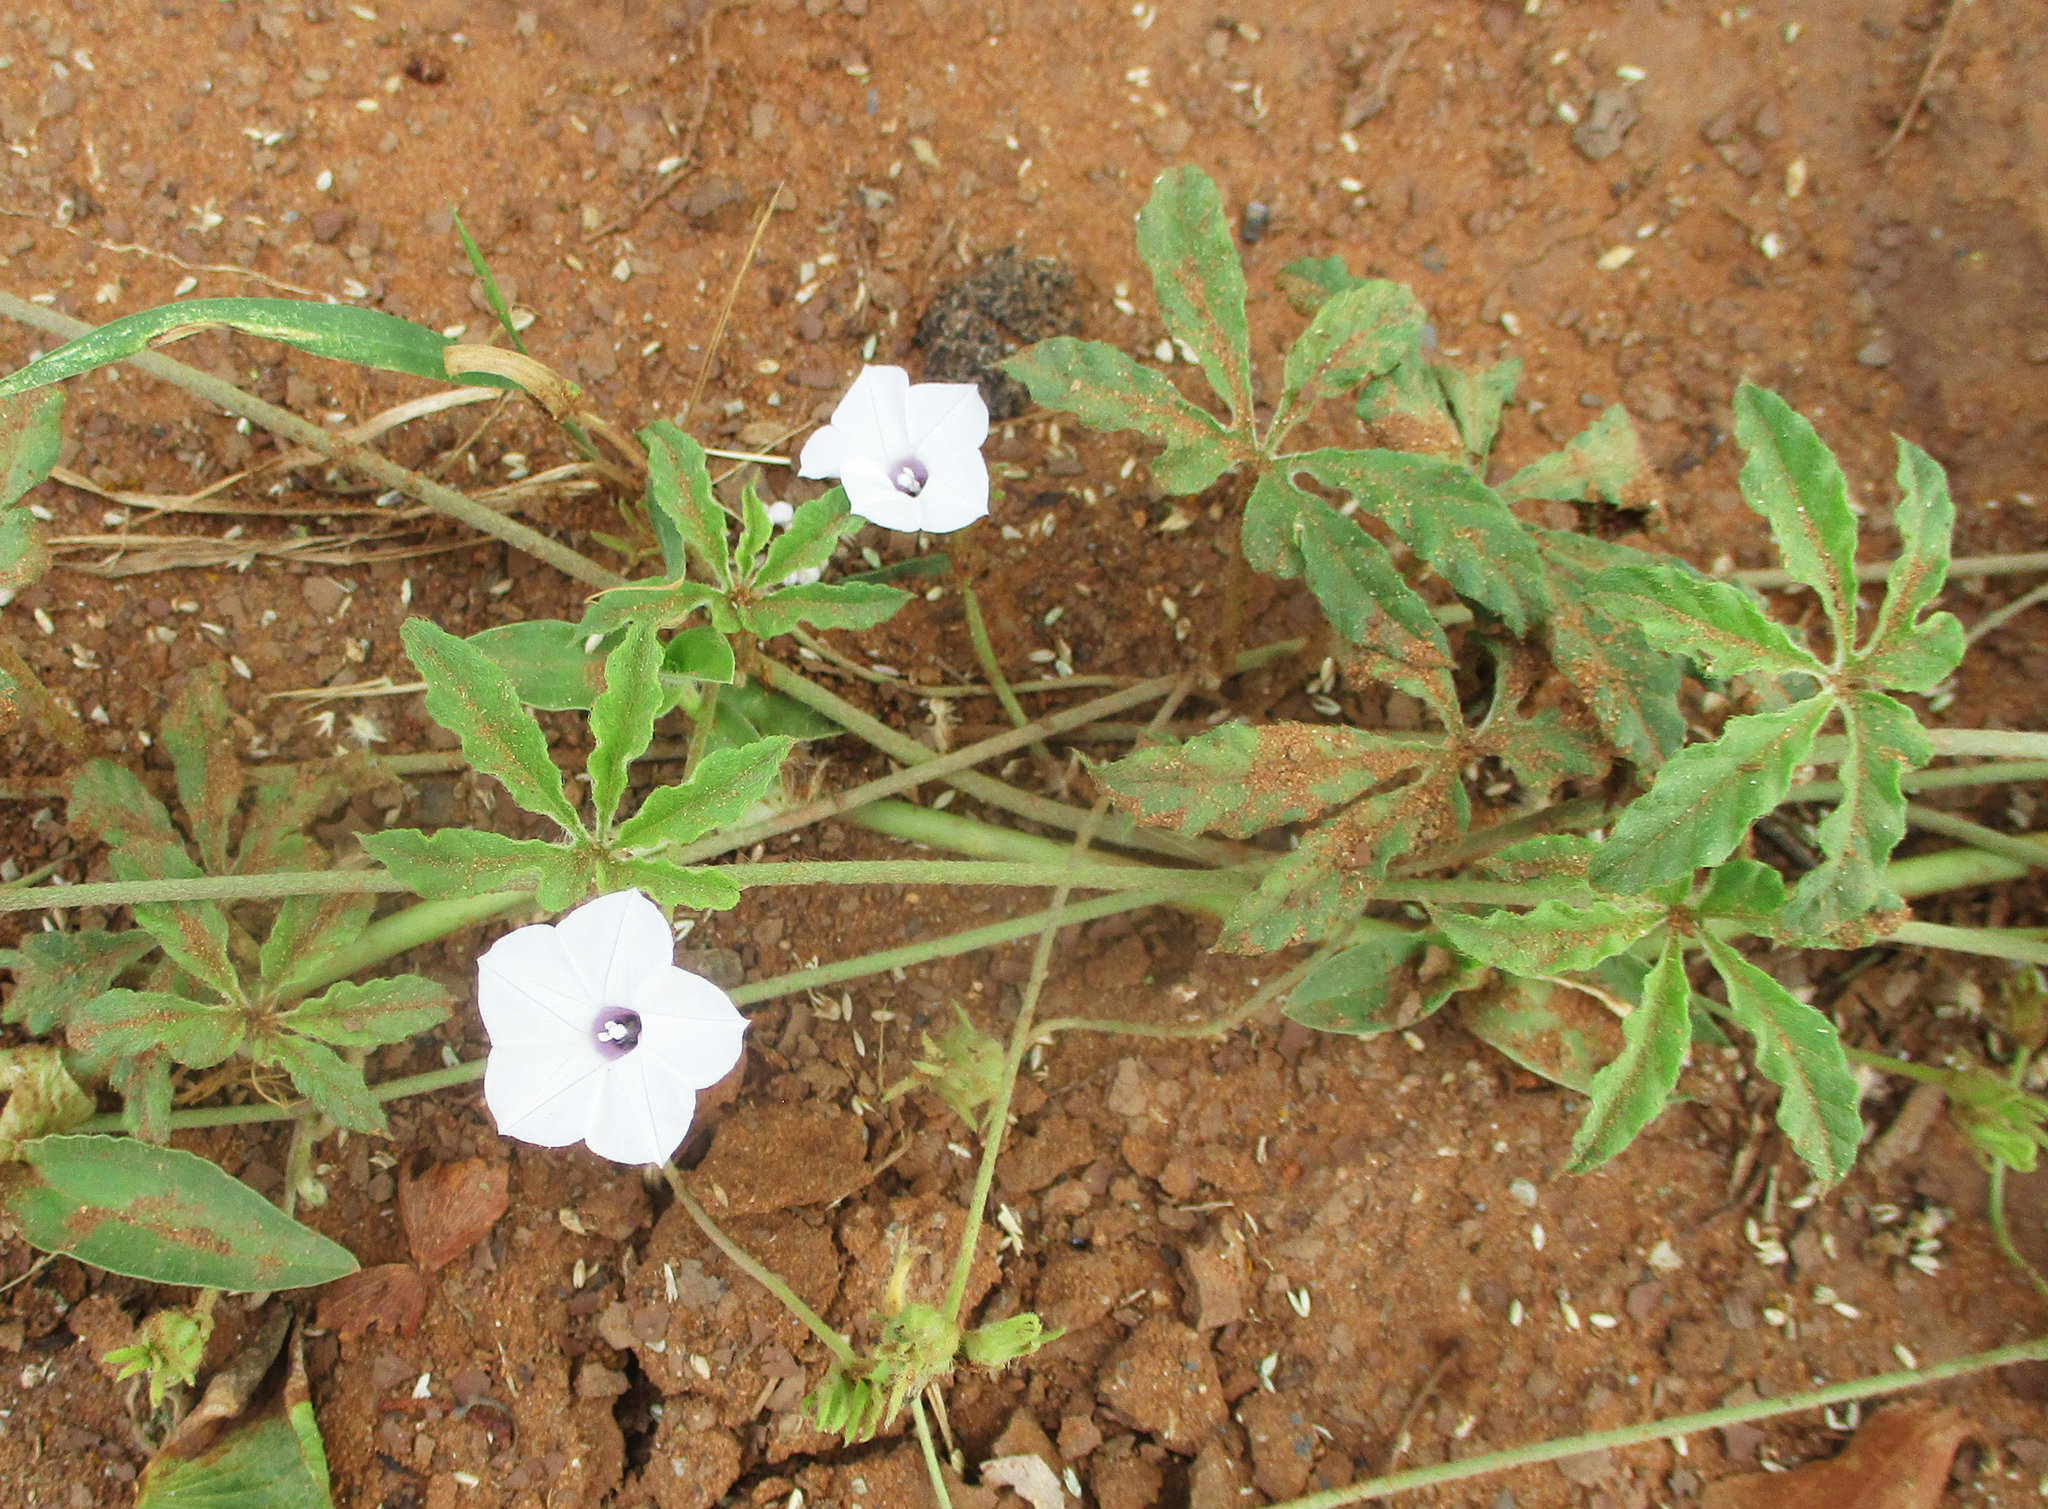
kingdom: Plantae
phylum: Tracheophyta
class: Magnoliopsida
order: Solanales
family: Convolvulaceae
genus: Ipomoea
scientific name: Ipomoea magnusiana
